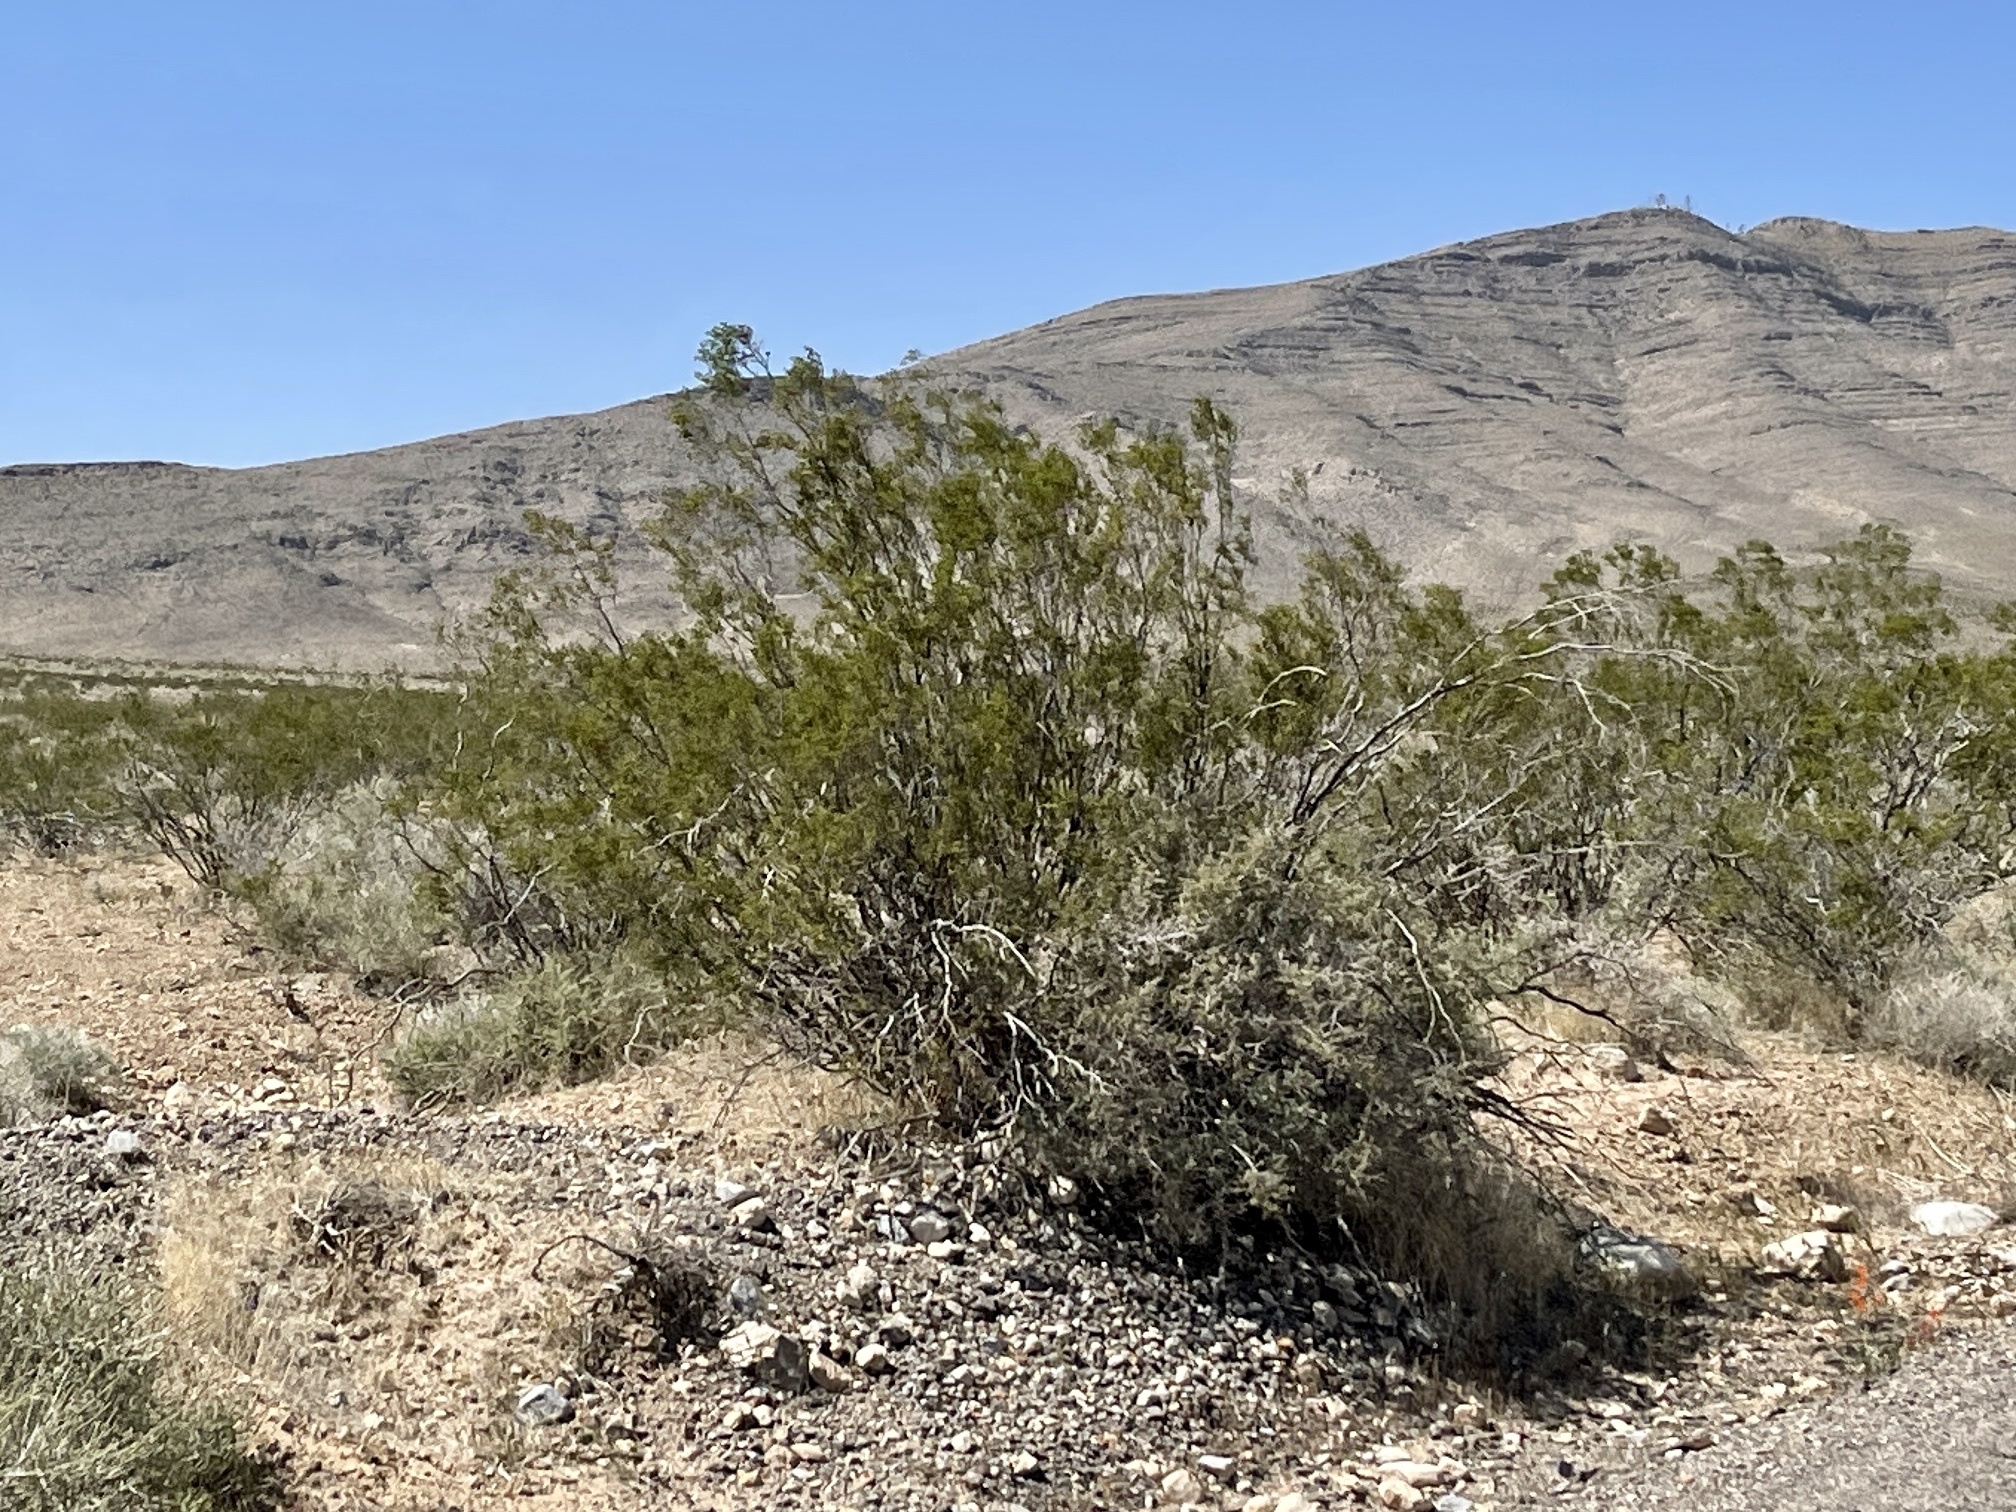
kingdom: Plantae
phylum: Tracheophyta
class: Magnoliopsida
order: Zygophyllales
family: Zygophyllaceae
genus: Larrea
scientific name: Larrea tridentata
